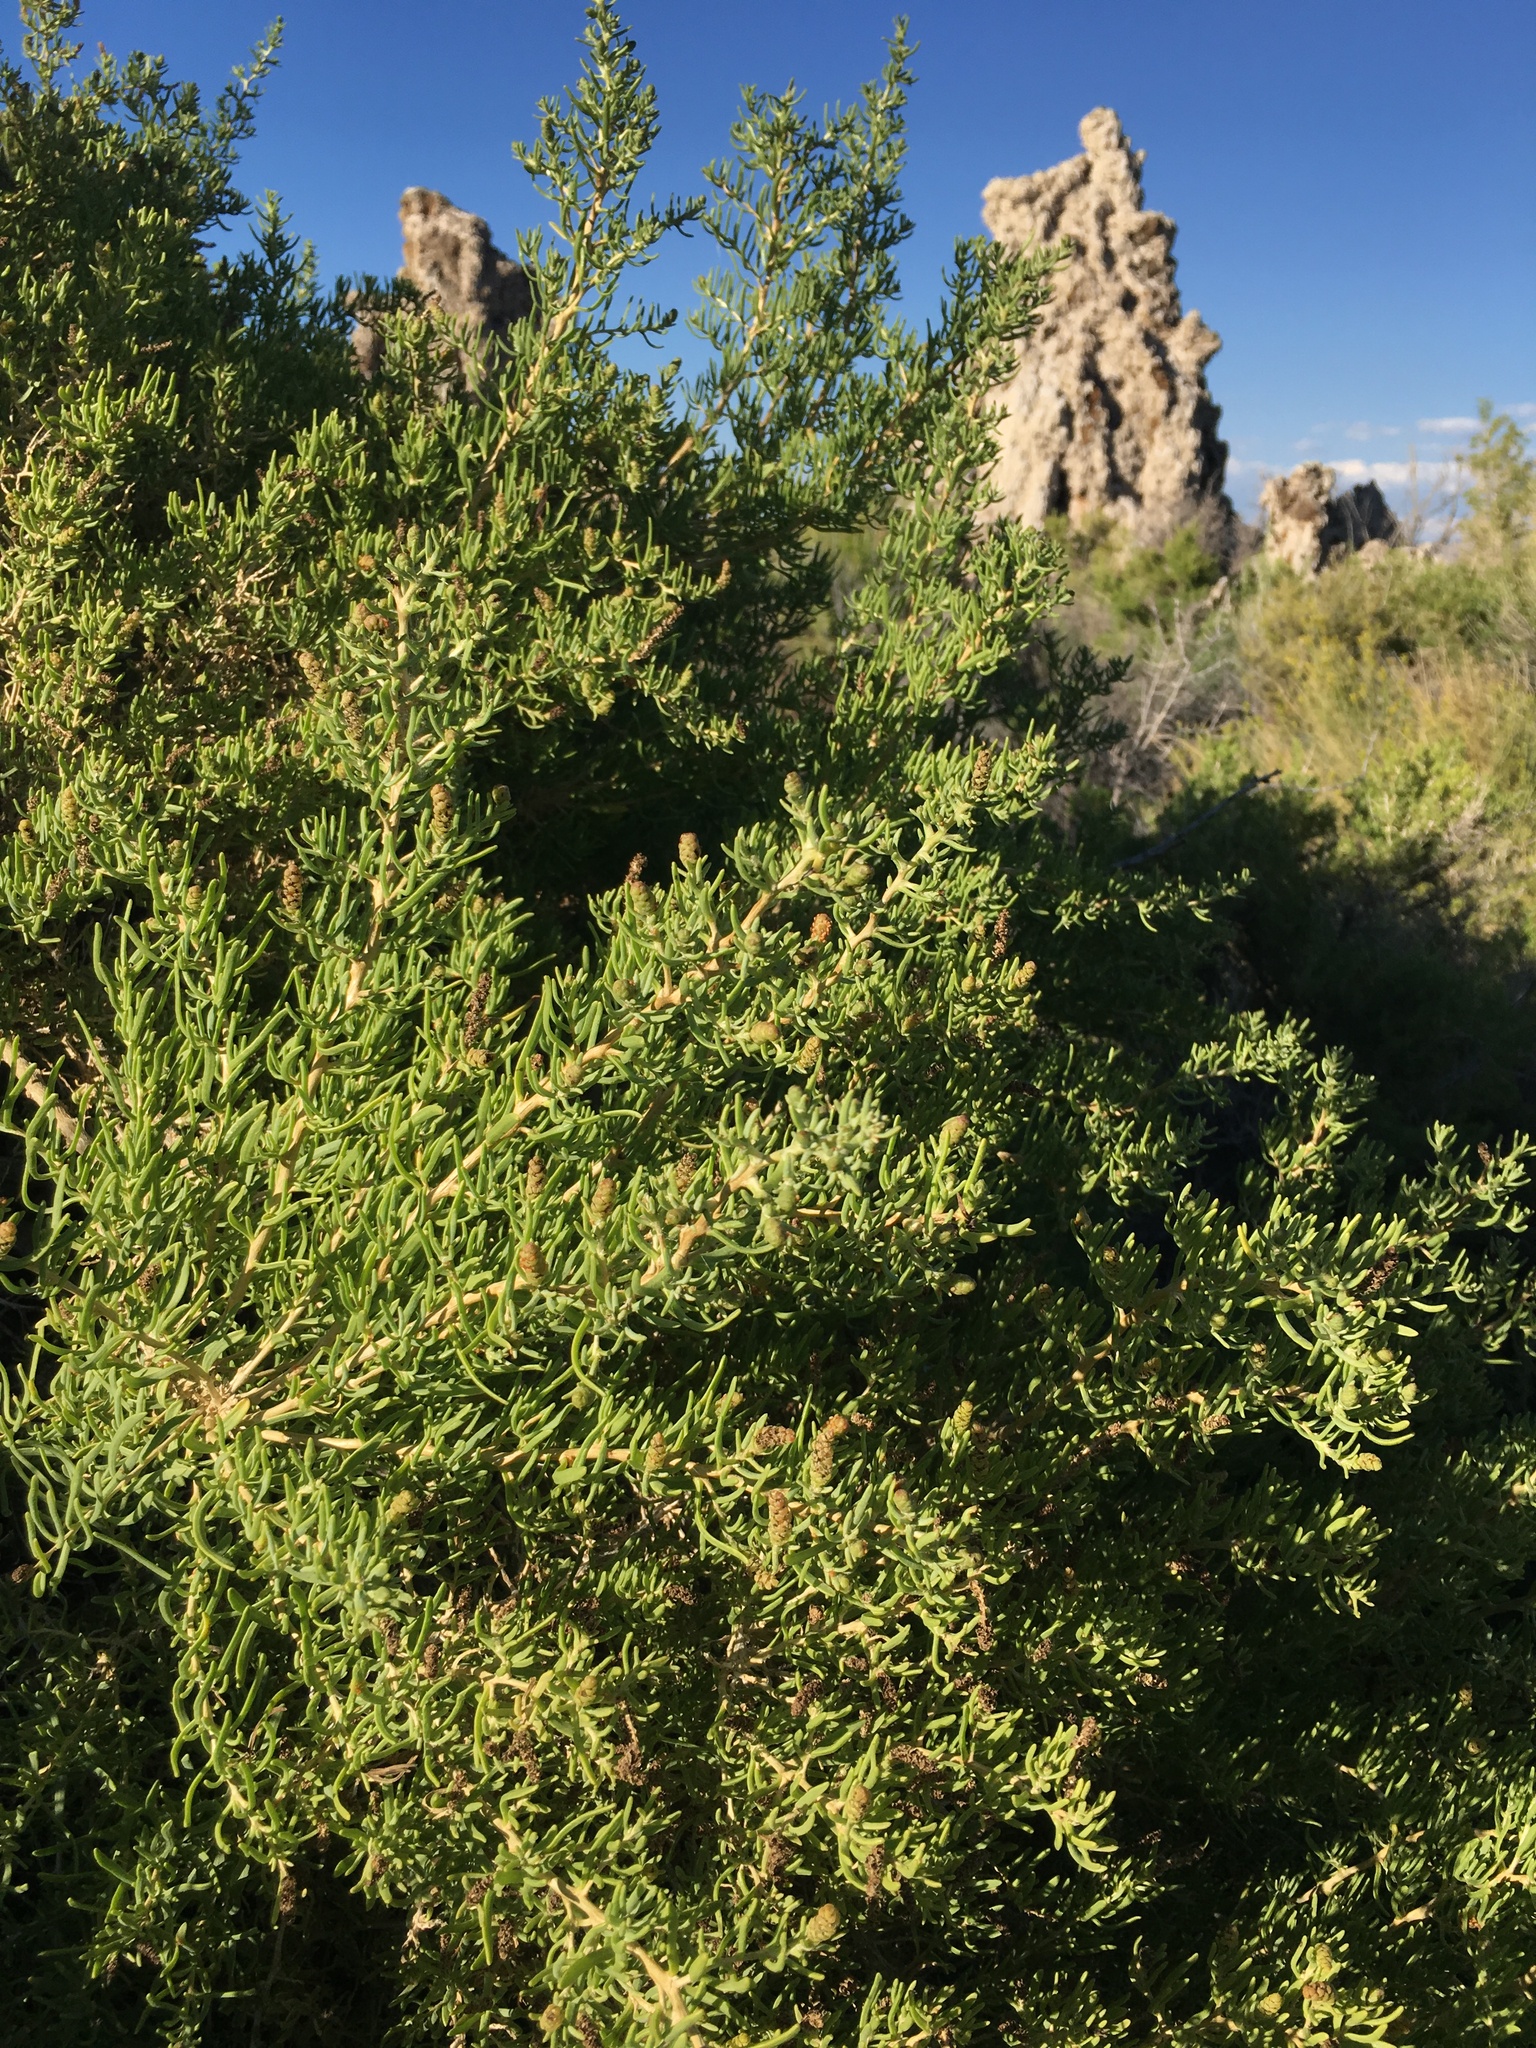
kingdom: Plantae
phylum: Tracheophyta
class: Magnoliopsida
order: Caryophyllales
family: Sarcobataceae
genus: Sarcobatus
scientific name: Sarcobatus vermiculatus
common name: Greasewood
